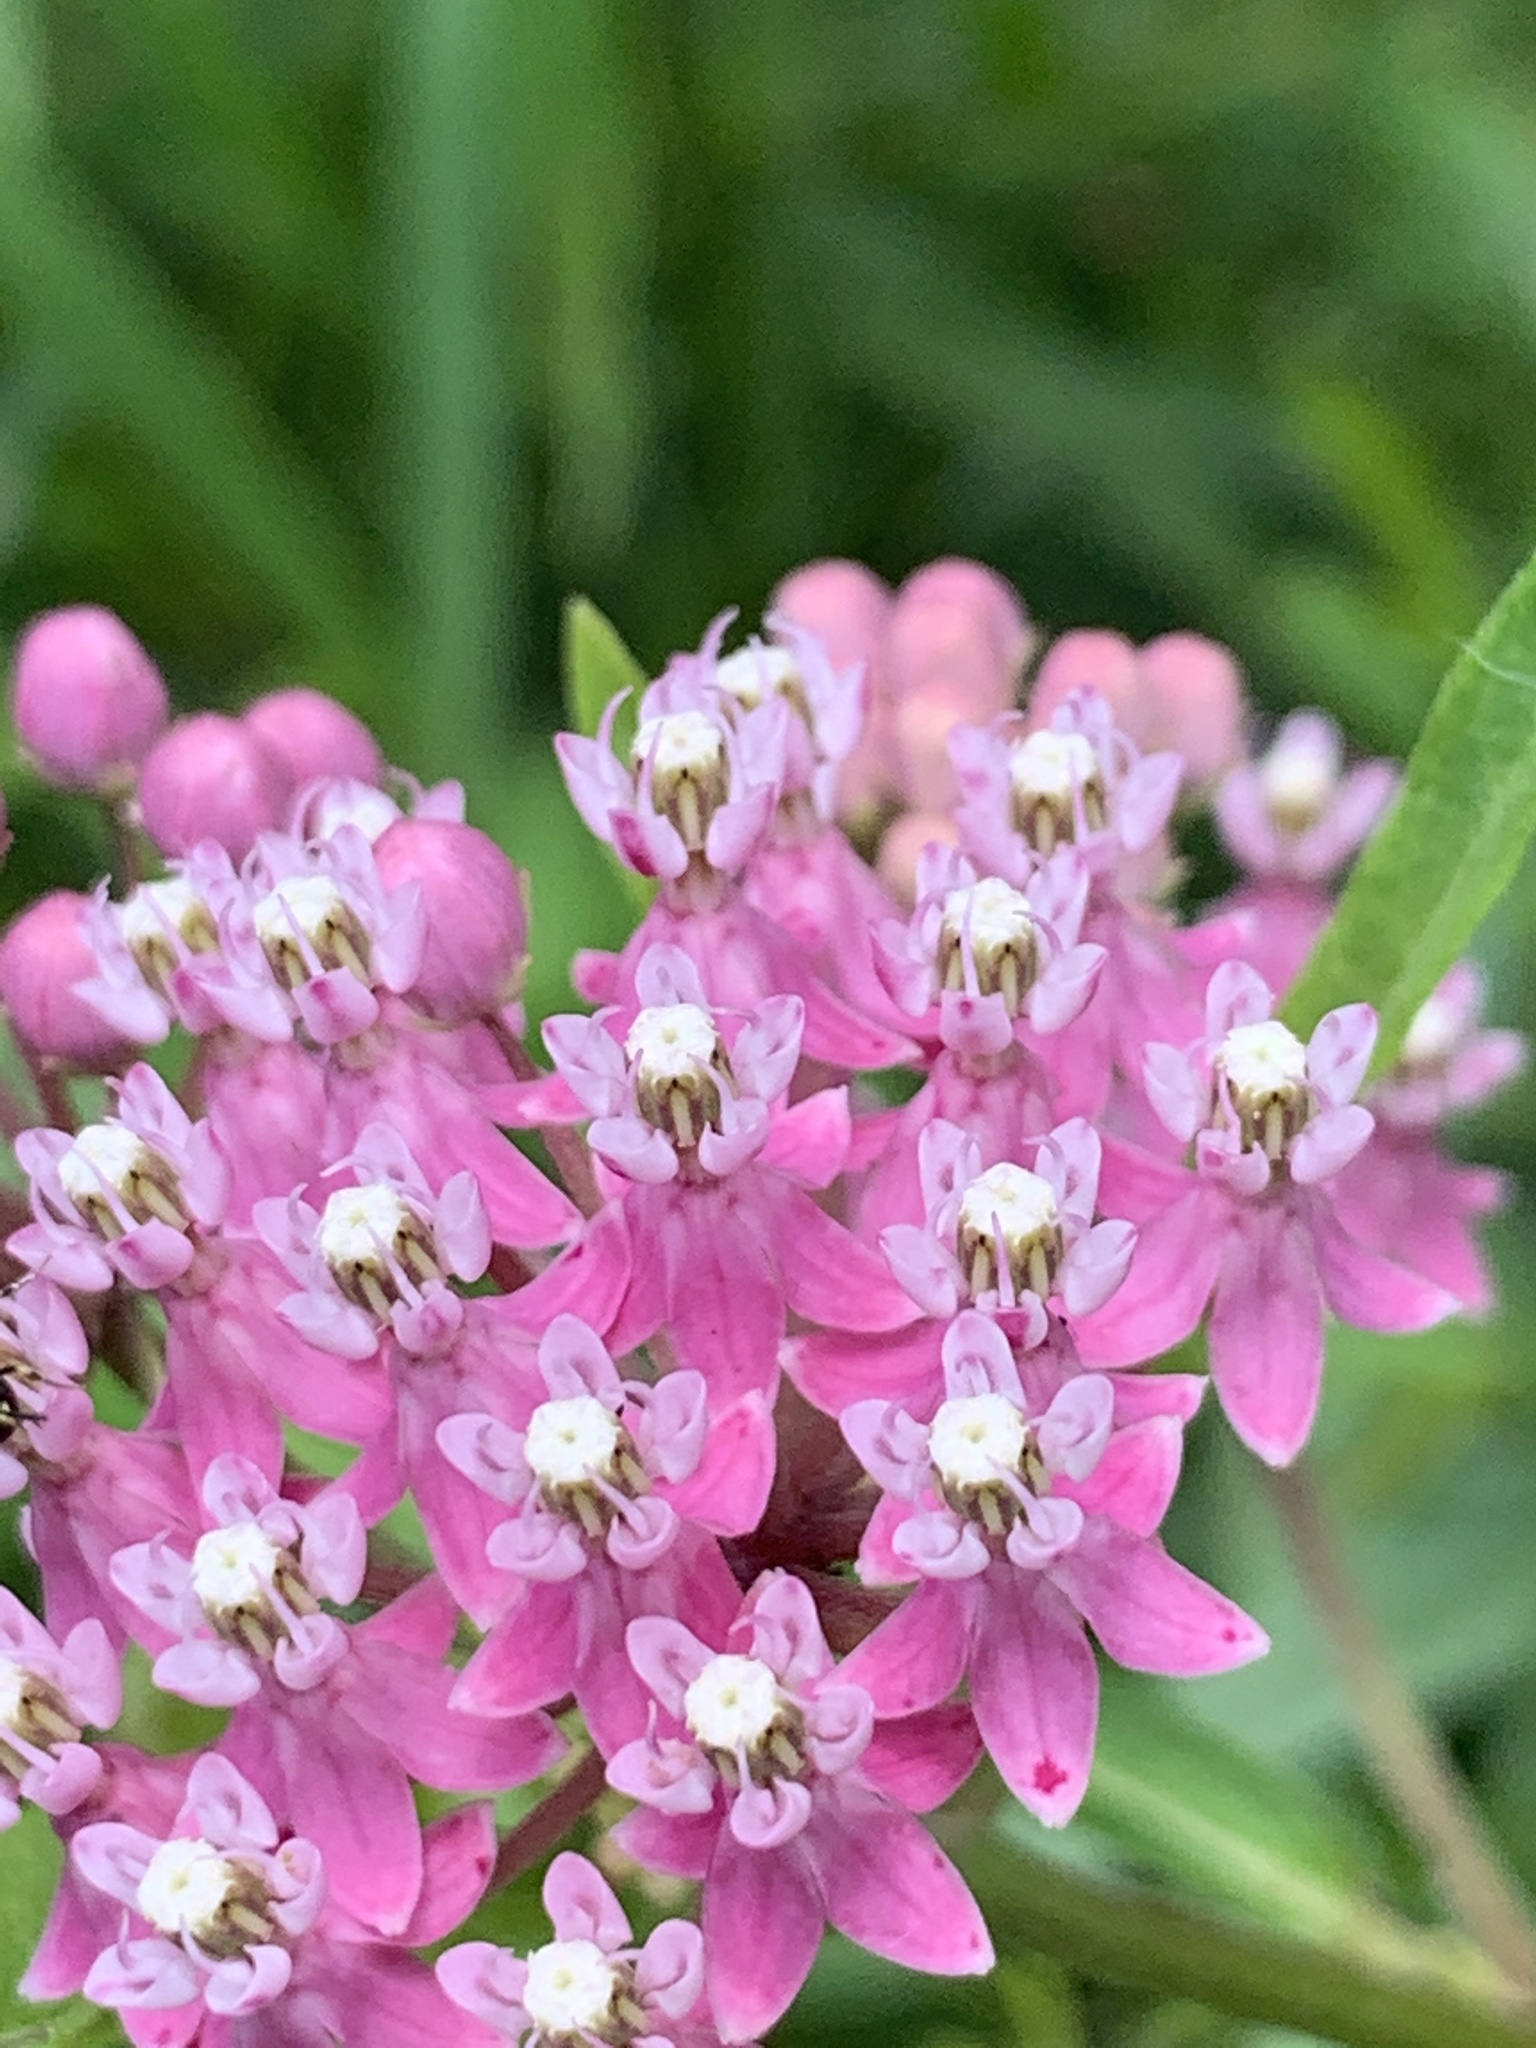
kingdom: Plantae
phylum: Tracheophyta
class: Magnoliopsida
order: Gentianales
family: Apocynaceae
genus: Asclepias
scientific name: Asclepias incarnata
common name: Swamp milkweed
